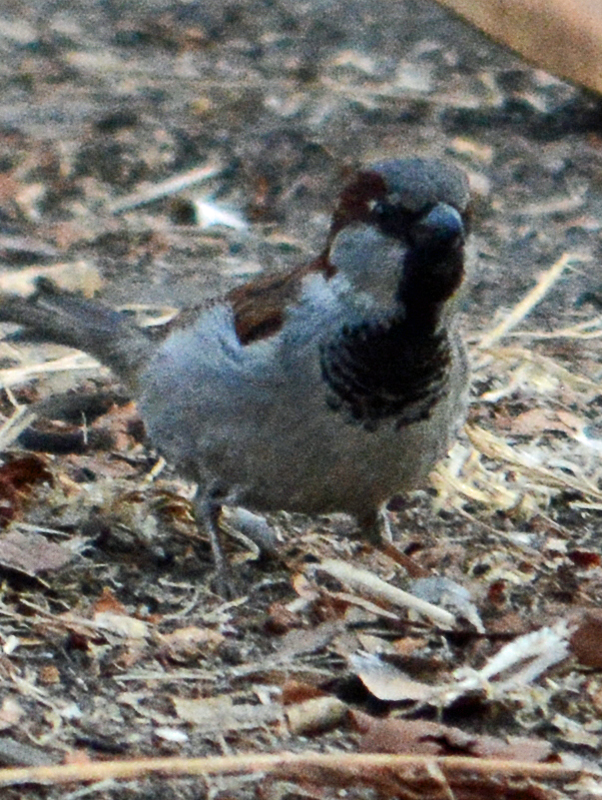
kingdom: Animalia
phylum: Chordata
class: Aves
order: Passeriformes
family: Passeridae
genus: Passer
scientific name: Passer domesticus
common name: House sparrow
